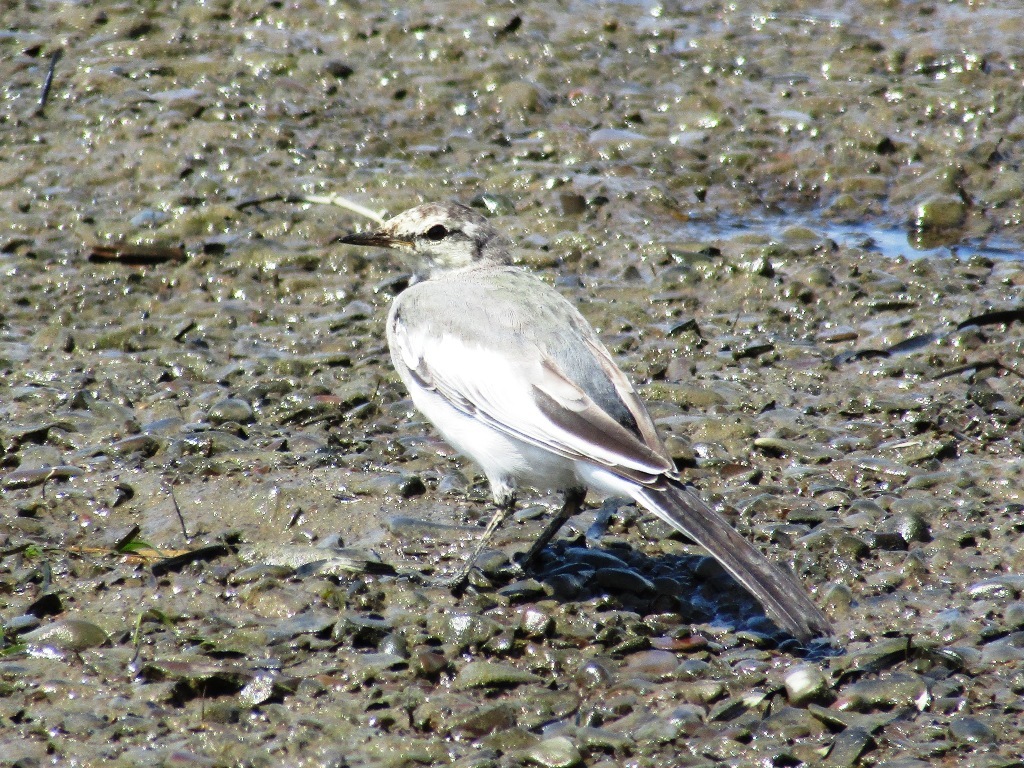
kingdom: Animalia
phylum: Chordata
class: Aves
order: Passeriformes
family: Motacillidae
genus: Motacilla
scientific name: Motacilla alba
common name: White wagtail
